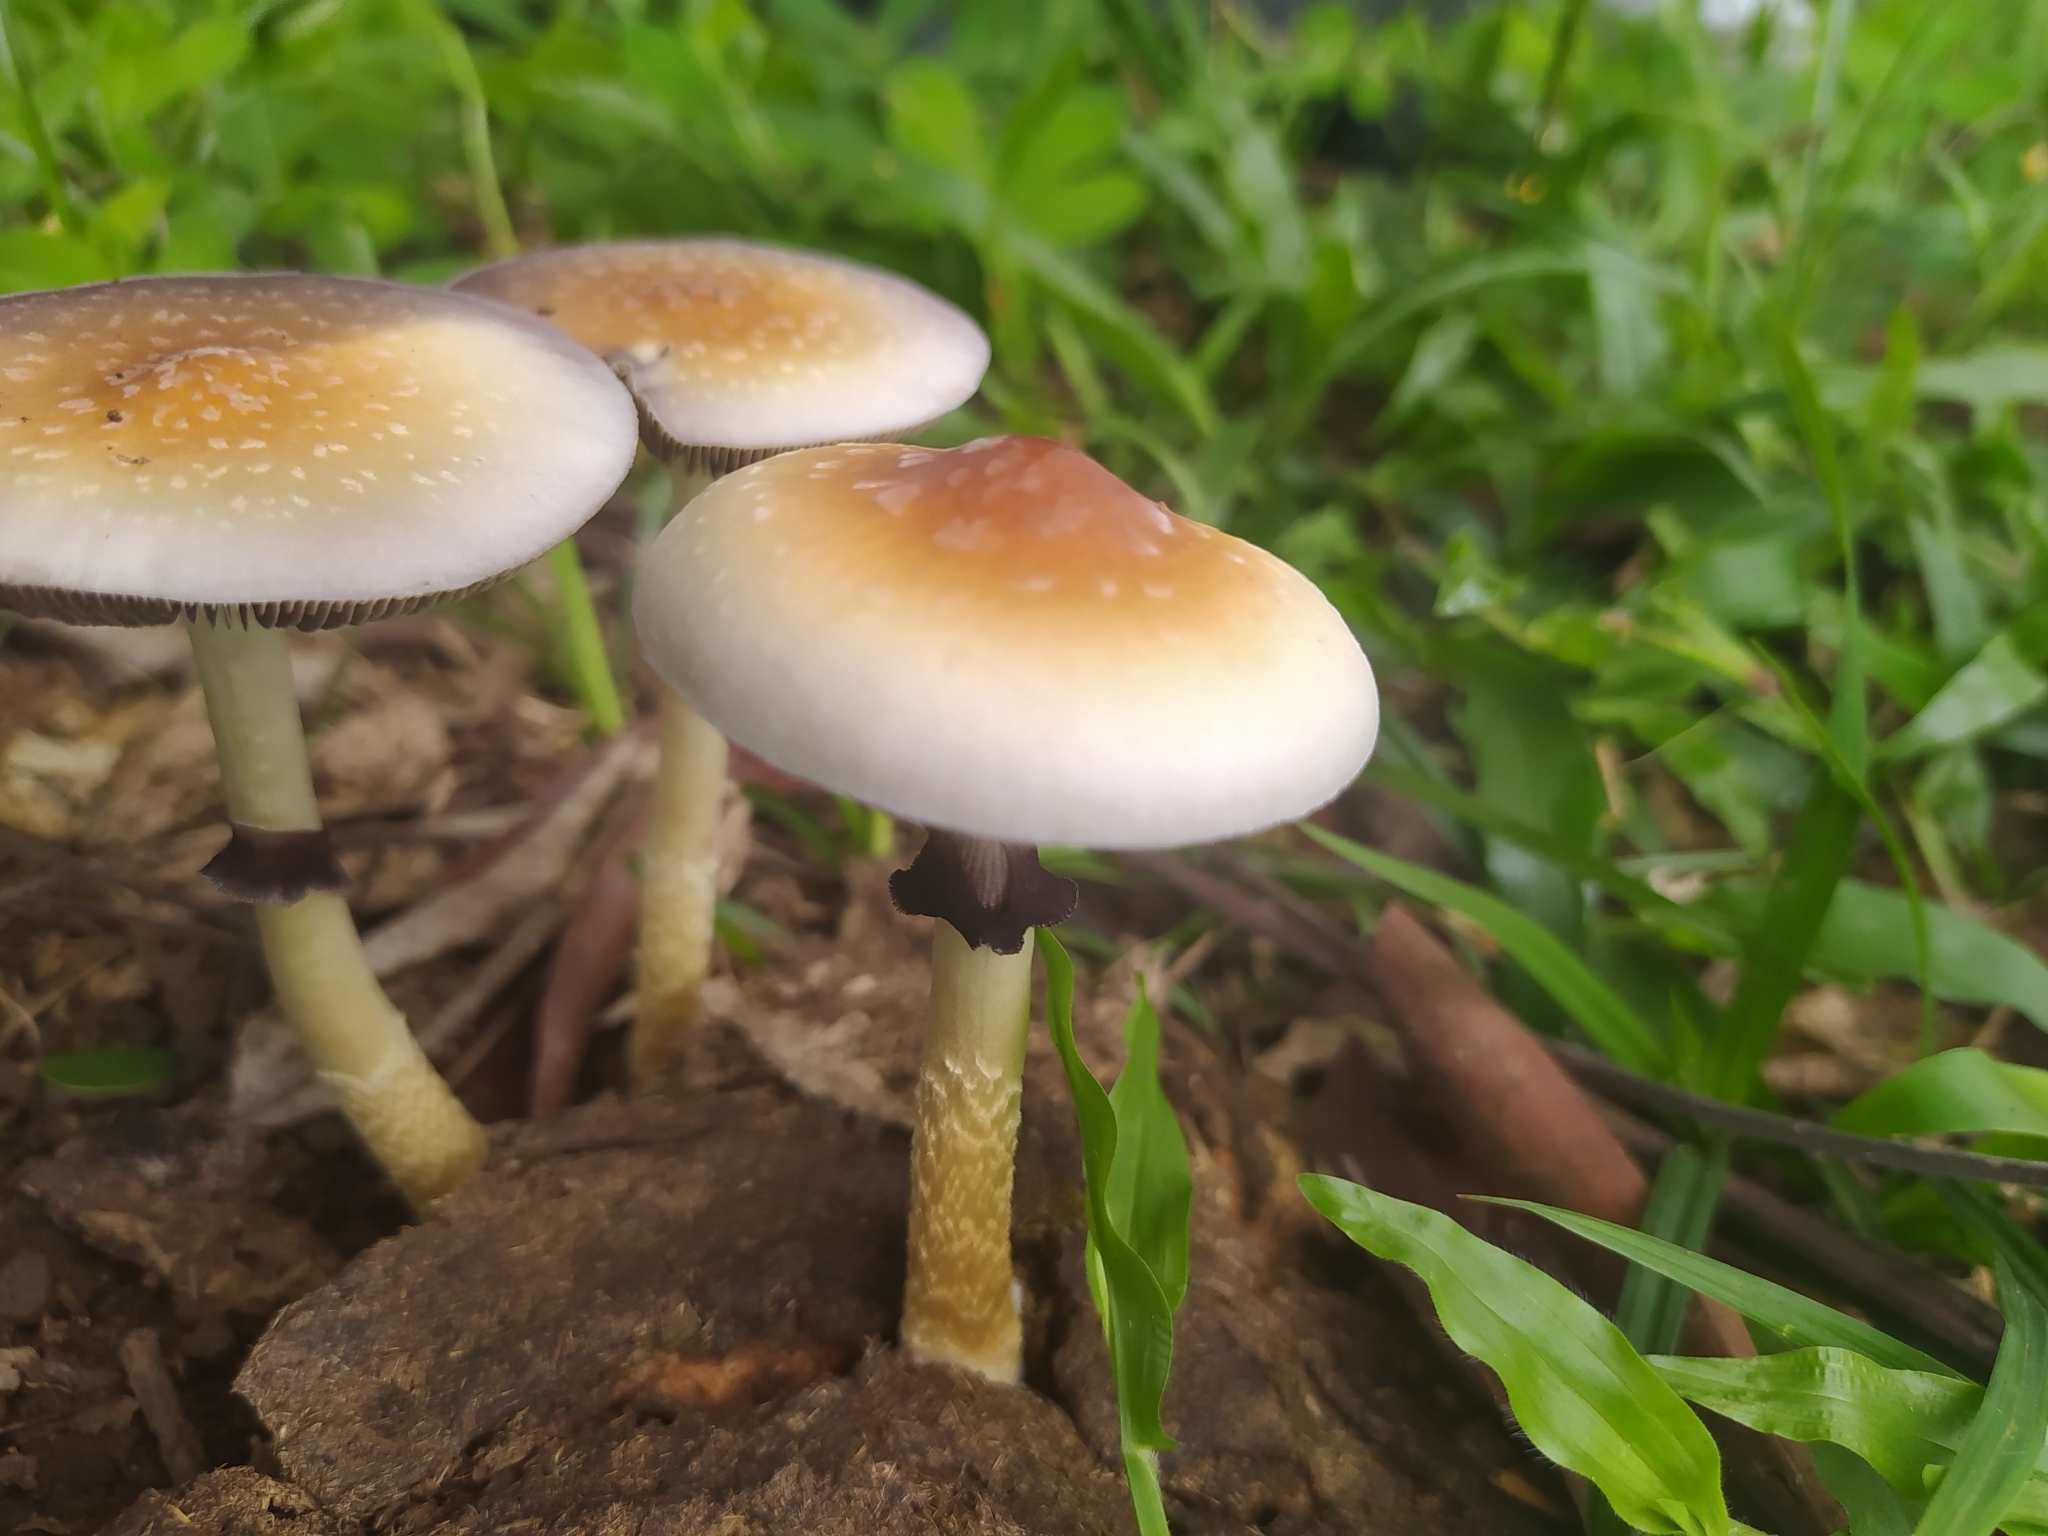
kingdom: Fungi
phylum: Basidiomycota
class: Agaricomycetes
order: Agaricales
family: Hymenogastraceae
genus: Psilocybe
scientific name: Psilocybe cubensis
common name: Golden brownie
